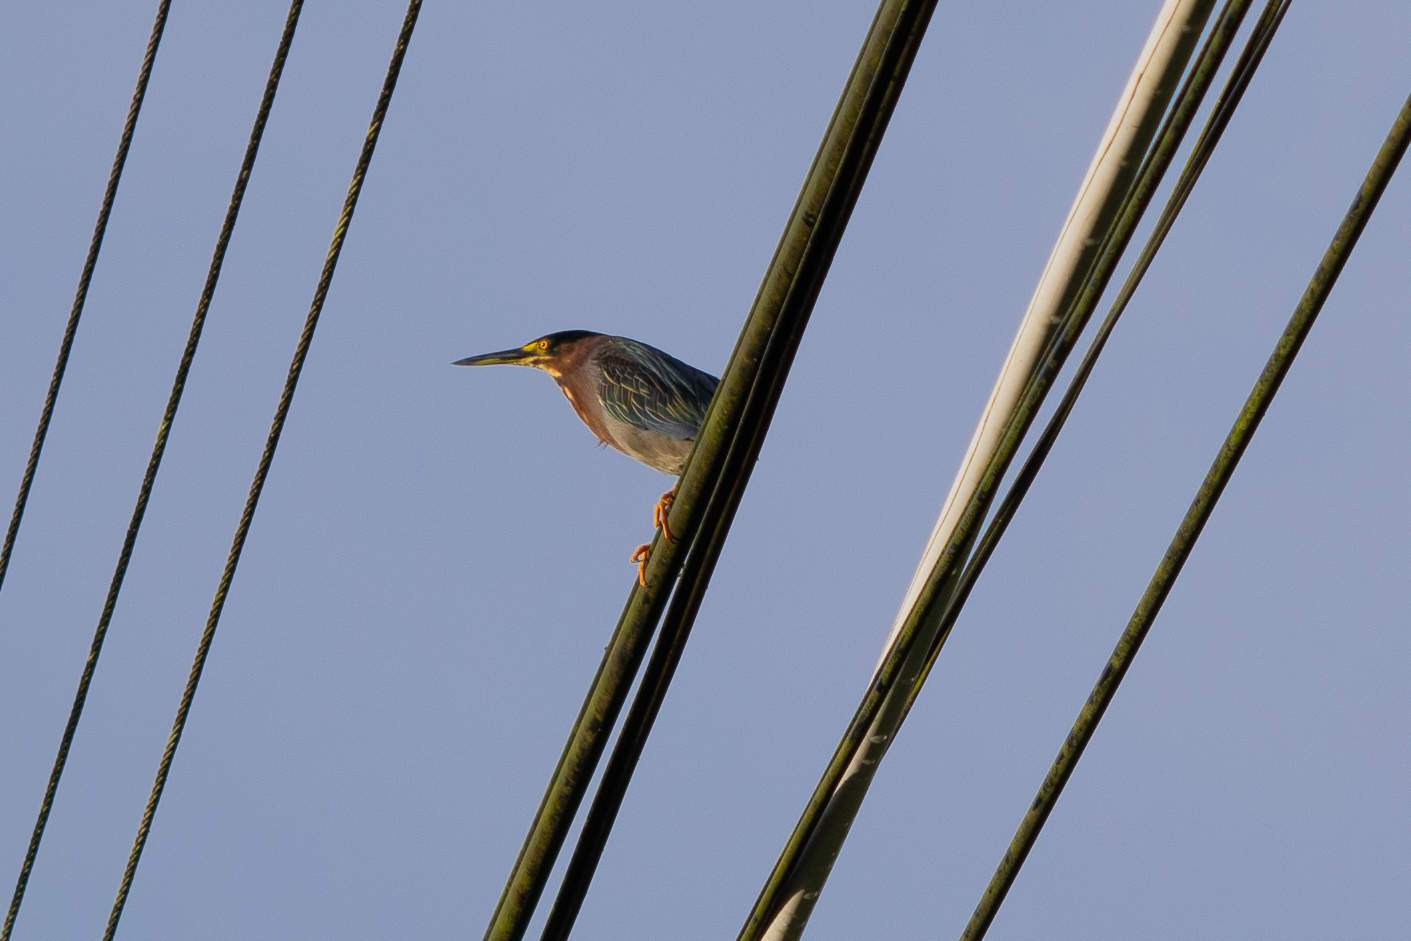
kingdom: Animalia
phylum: Chordata
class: Aves
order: Pelecaniformes
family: Ardeidae
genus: Butorides
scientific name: Butorides virescens
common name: Green heron
